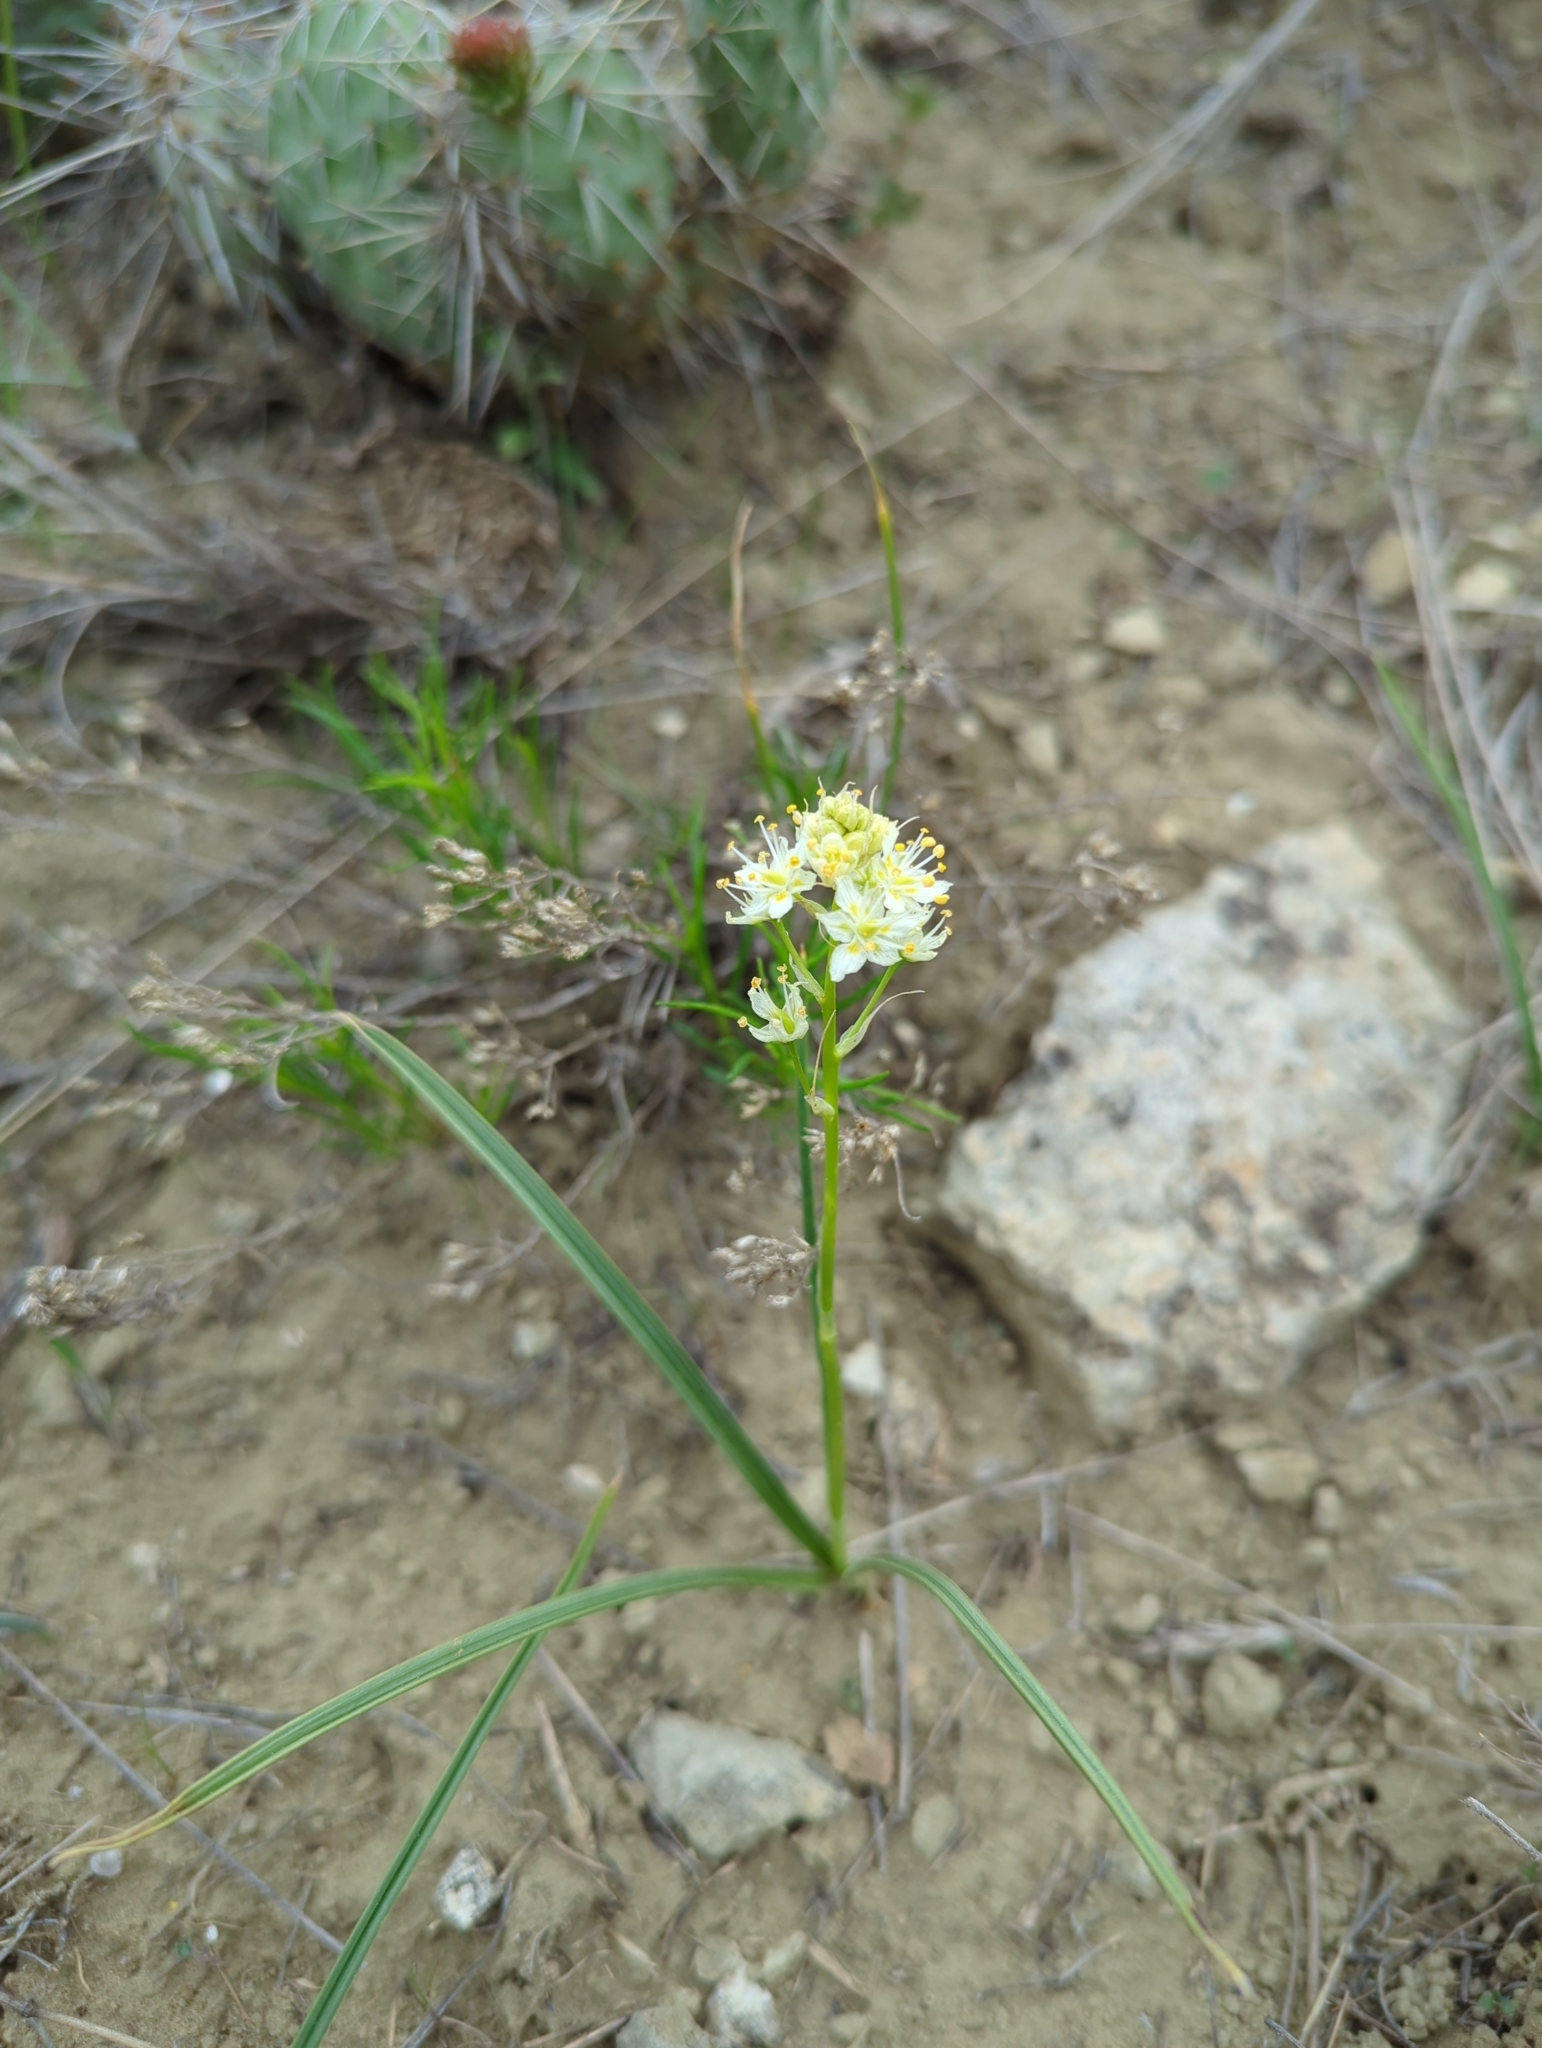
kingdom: Plantae
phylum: Tracheophyta
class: Liliopsida
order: Liliales
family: Melanthiaceae
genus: Toxicoscordion
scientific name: Toxicoscordion venenosum
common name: Meadow death camas
